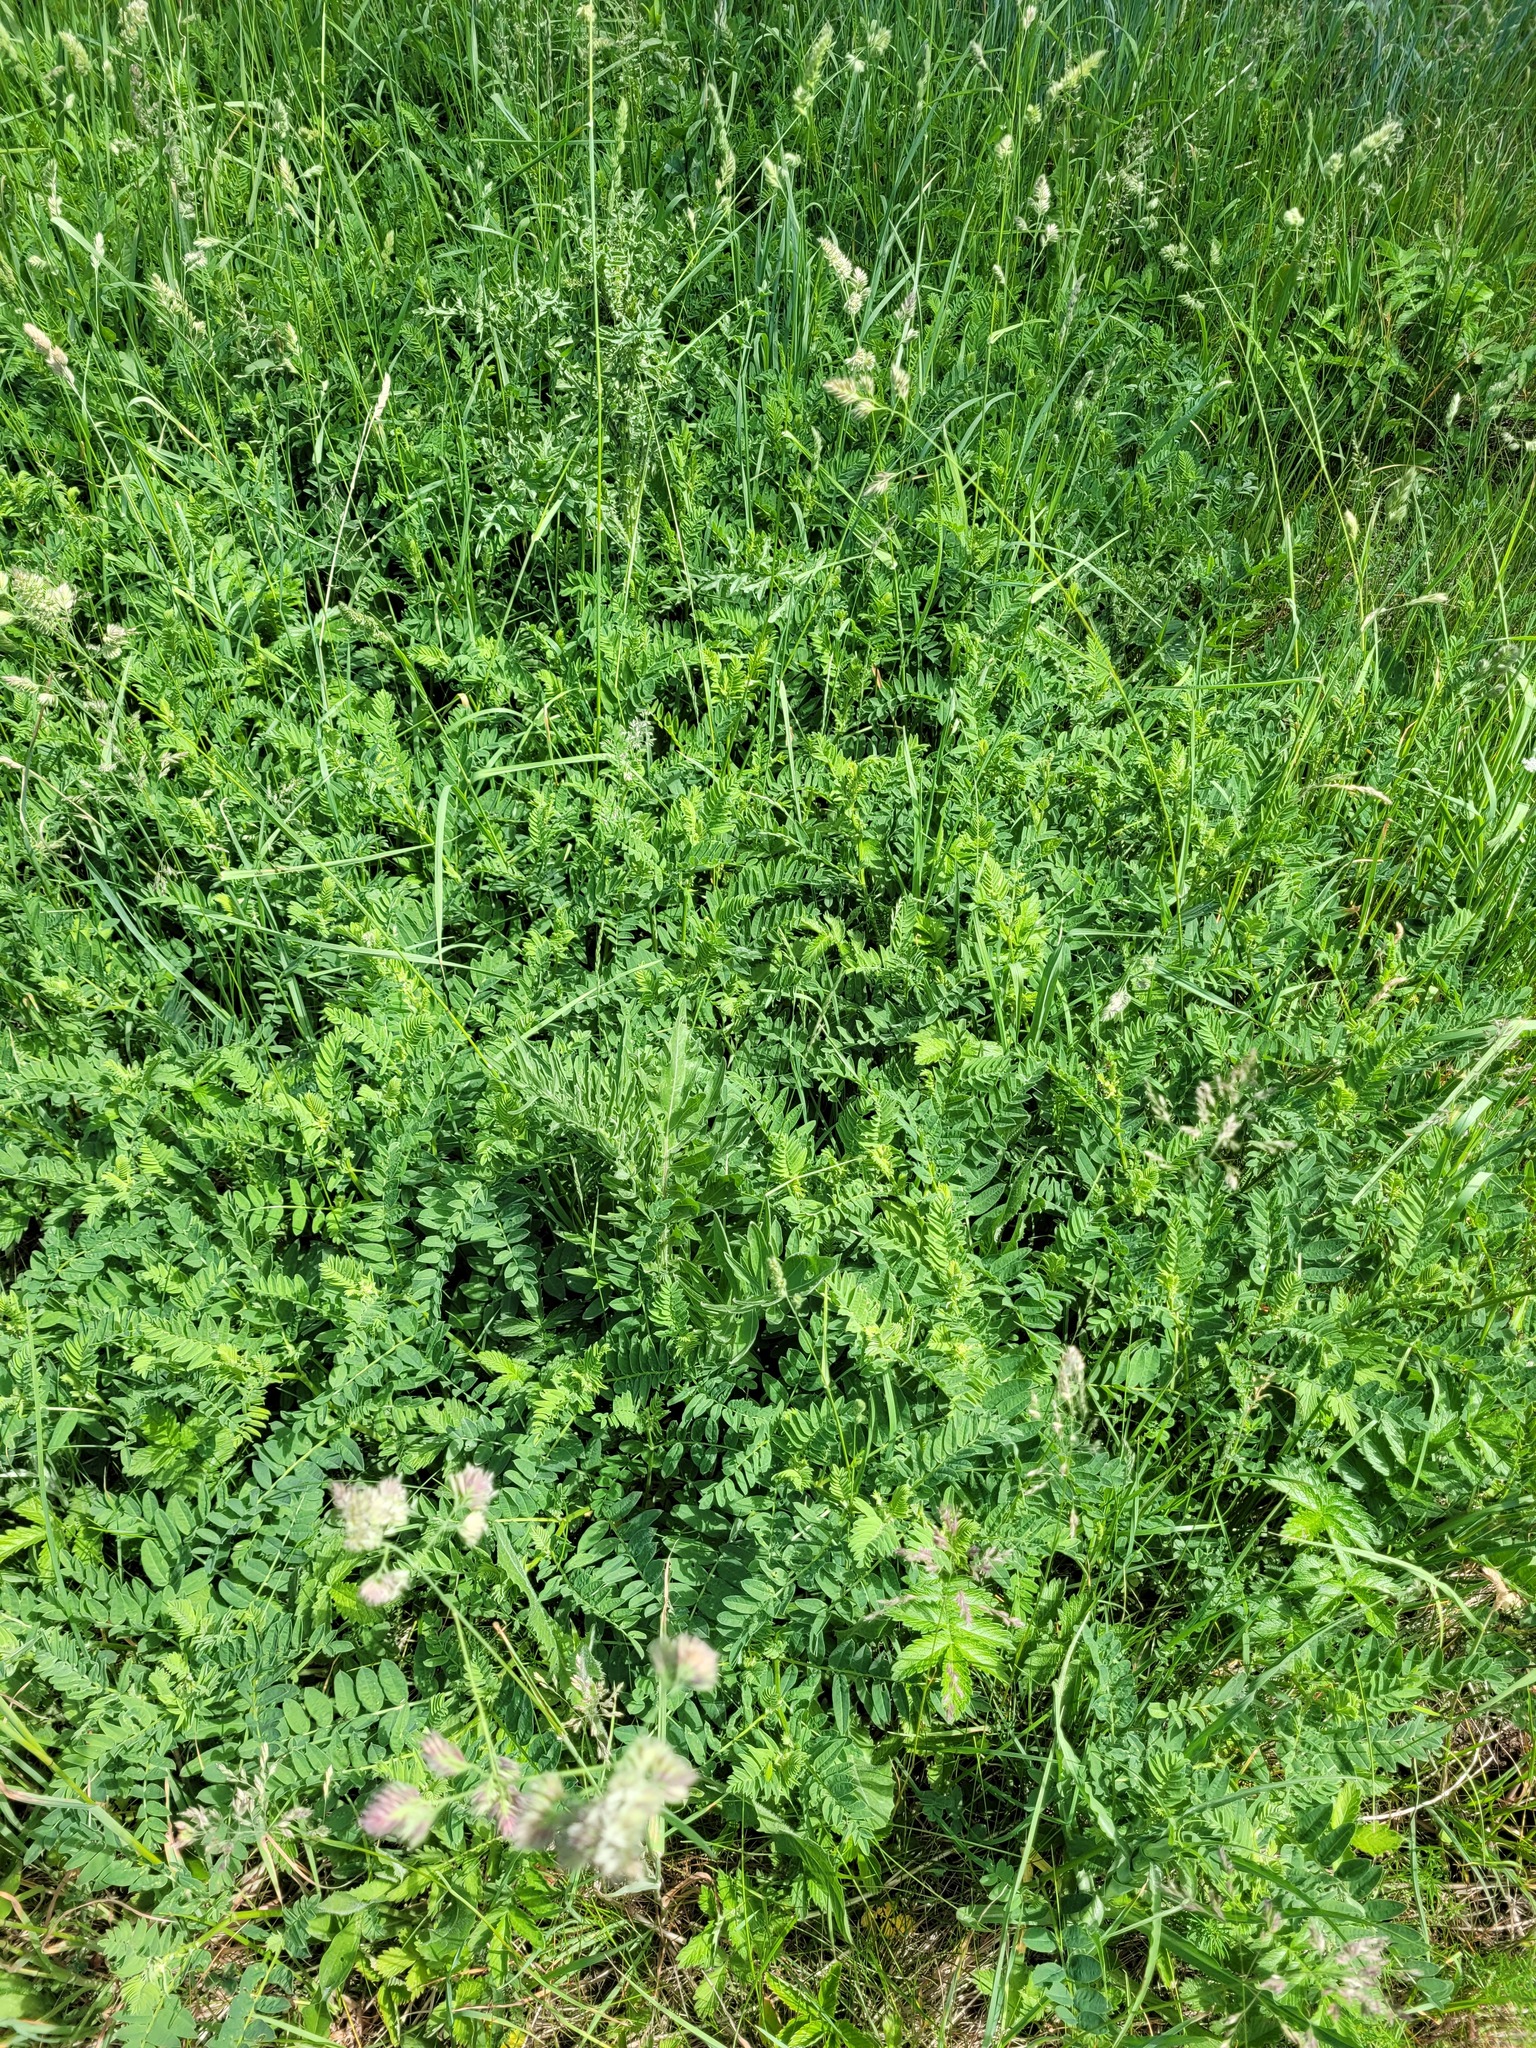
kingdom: Plantae
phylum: Tracheophyta
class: Magnoliopsida
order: Fabales
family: Fabaceae
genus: Astragalus
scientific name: Astragalus cicer
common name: Chick-pea milk-vetch
